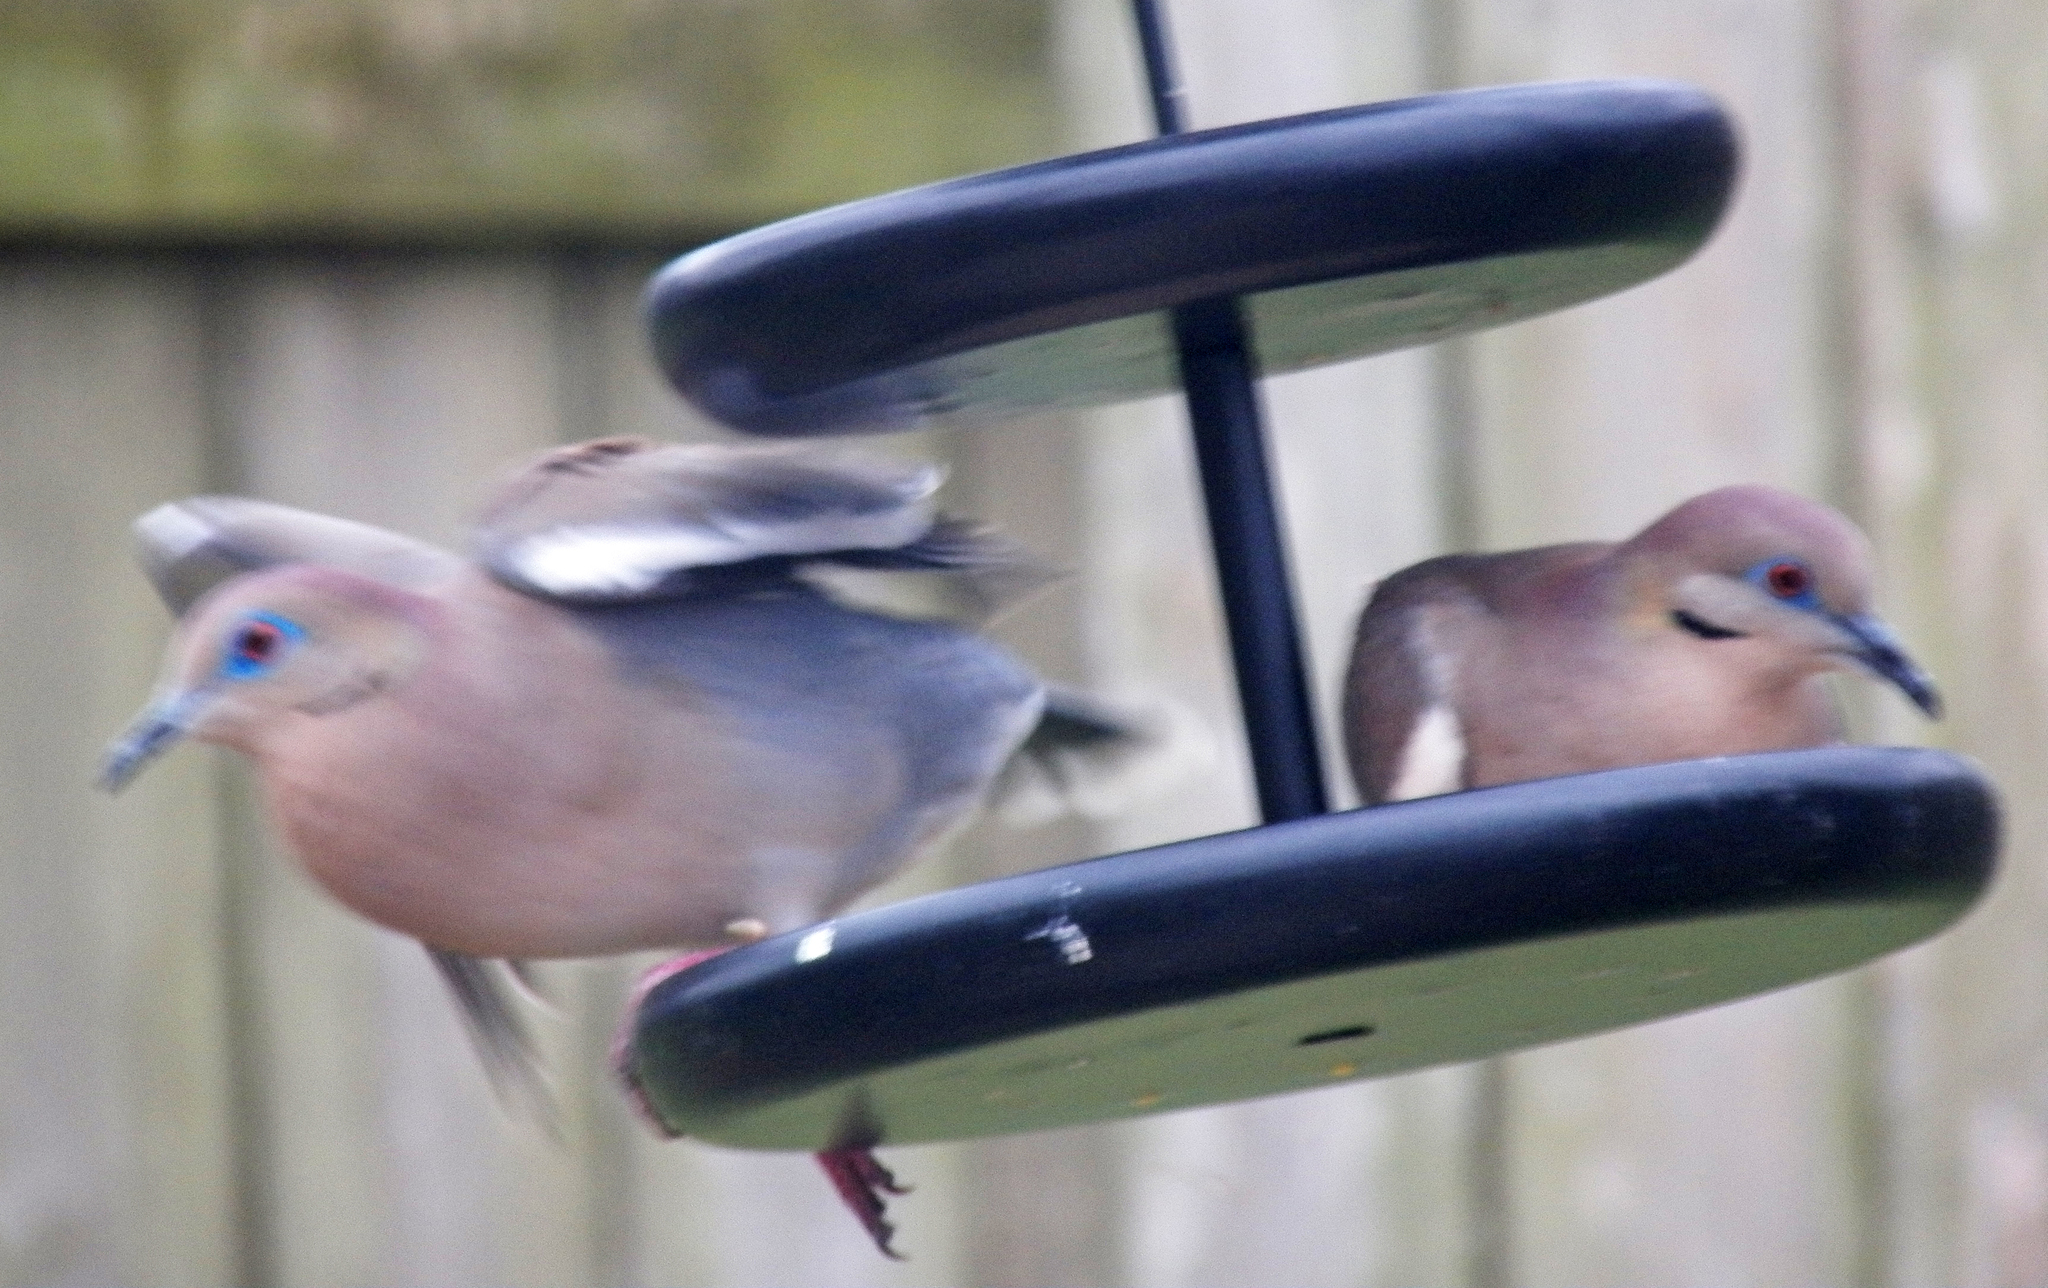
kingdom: Animalia
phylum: Chordata
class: Aves
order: Columbiformes
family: Columbidae
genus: Zenaida
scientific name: Zenaida asiatica
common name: White-winged dove
